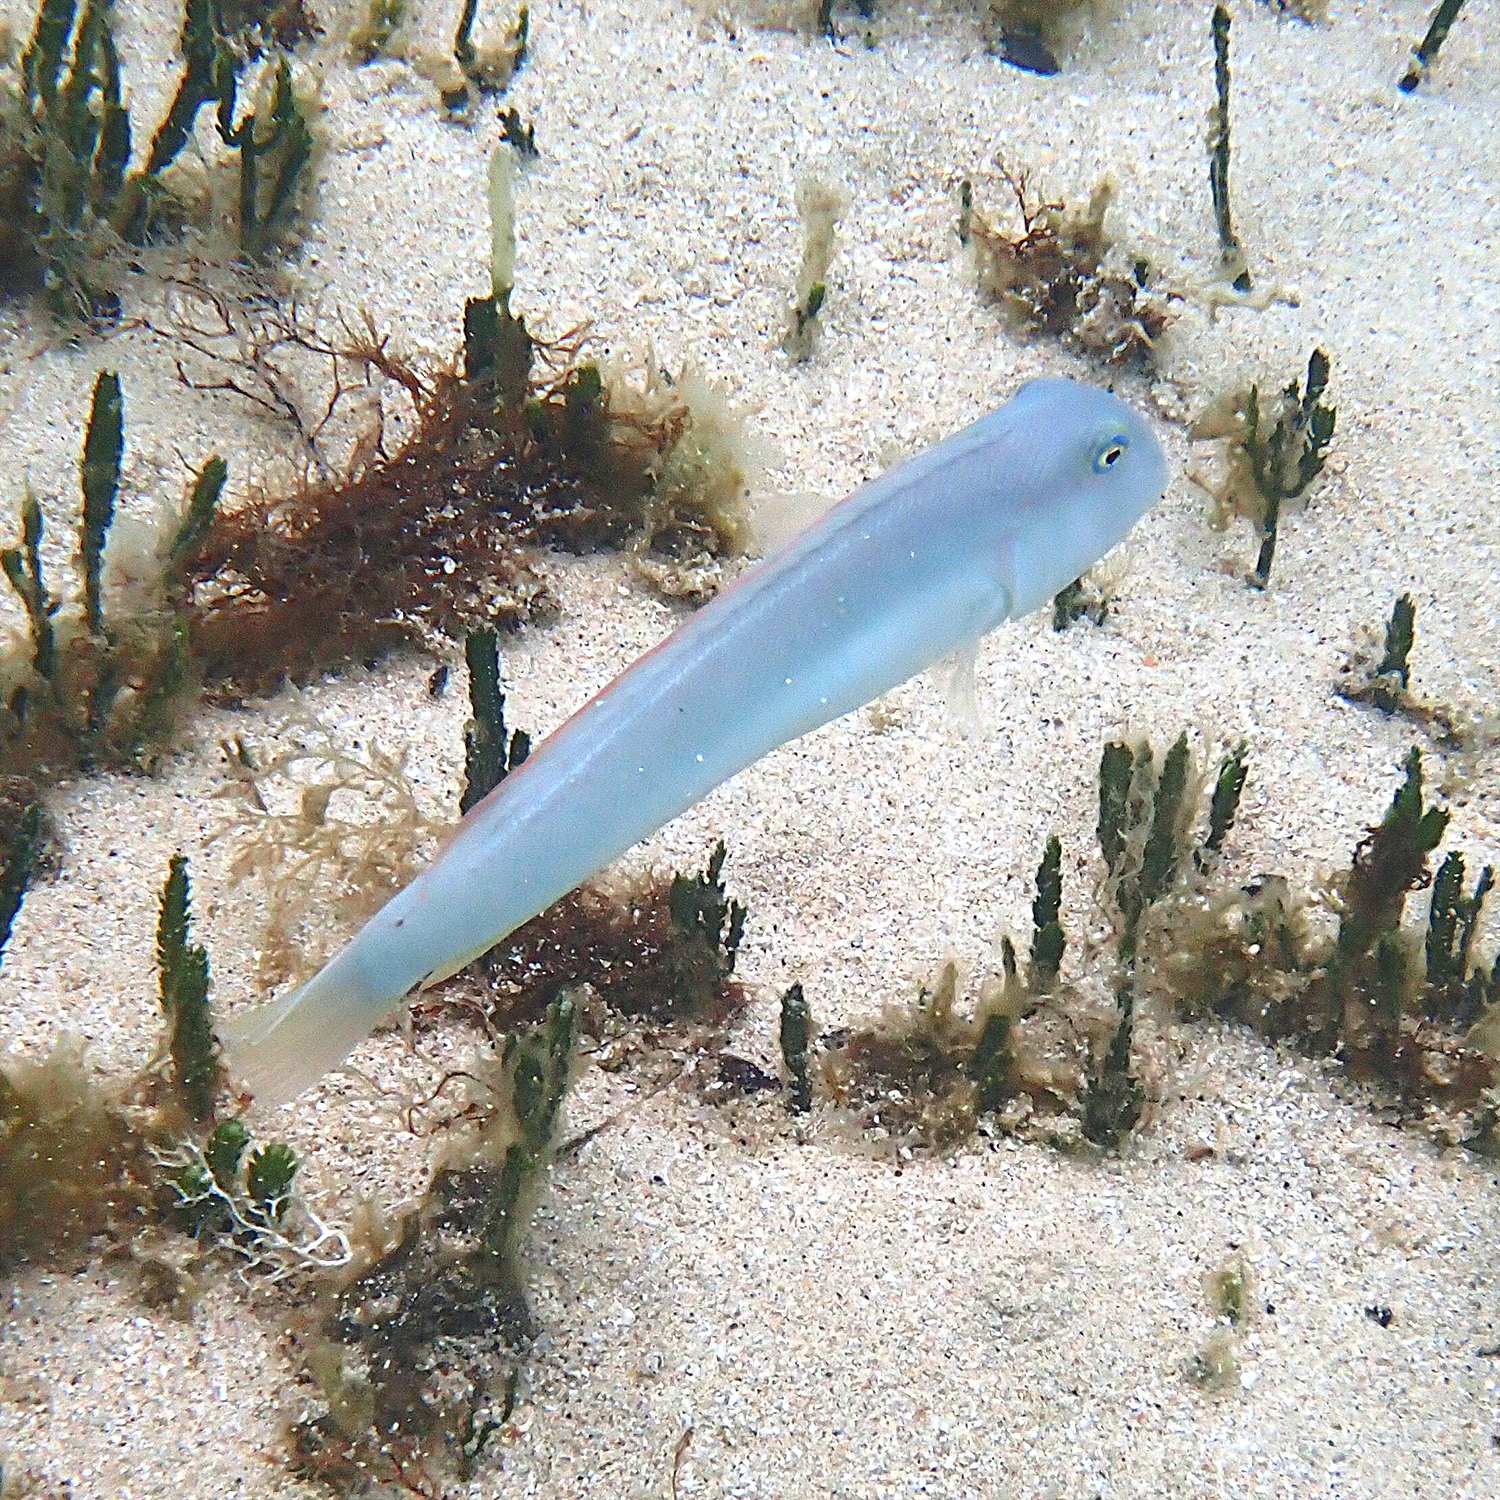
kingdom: Animalia
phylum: Chordata
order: Perciformes
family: Labridae
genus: Cymolutes
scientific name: Cymolutes praetextatus
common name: Knife razorfish
